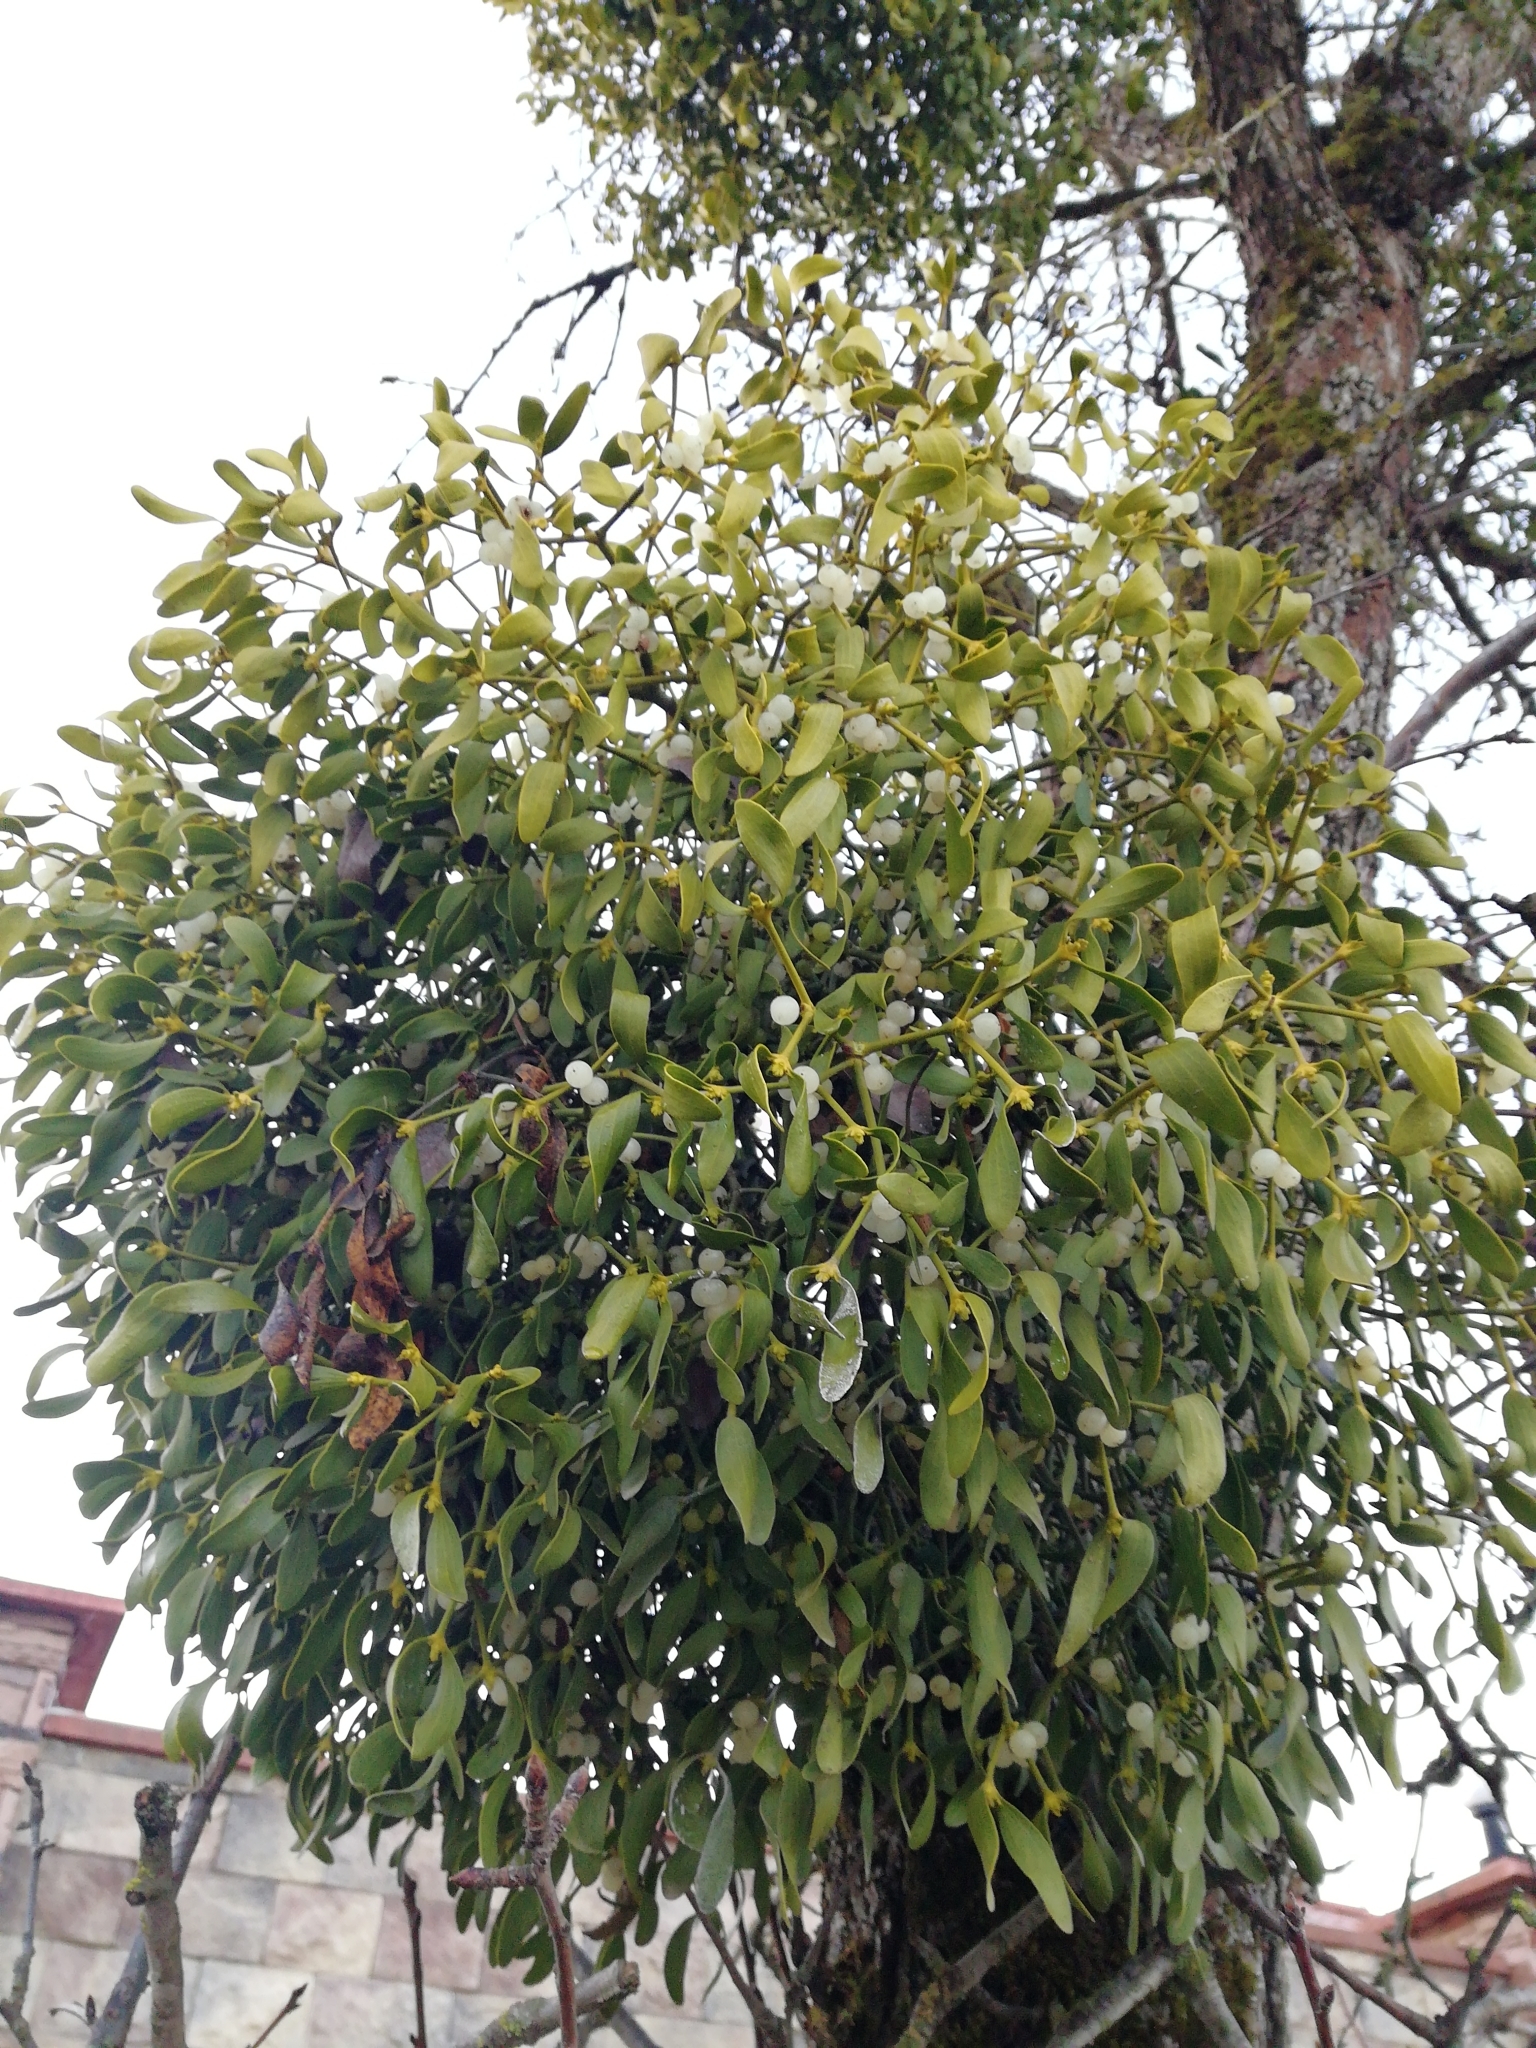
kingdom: Plantae
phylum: Tracheophyta
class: Magnoliopsida
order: Santalales
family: Viscaceae
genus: Viscum
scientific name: Viscum album
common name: Mistletoe
